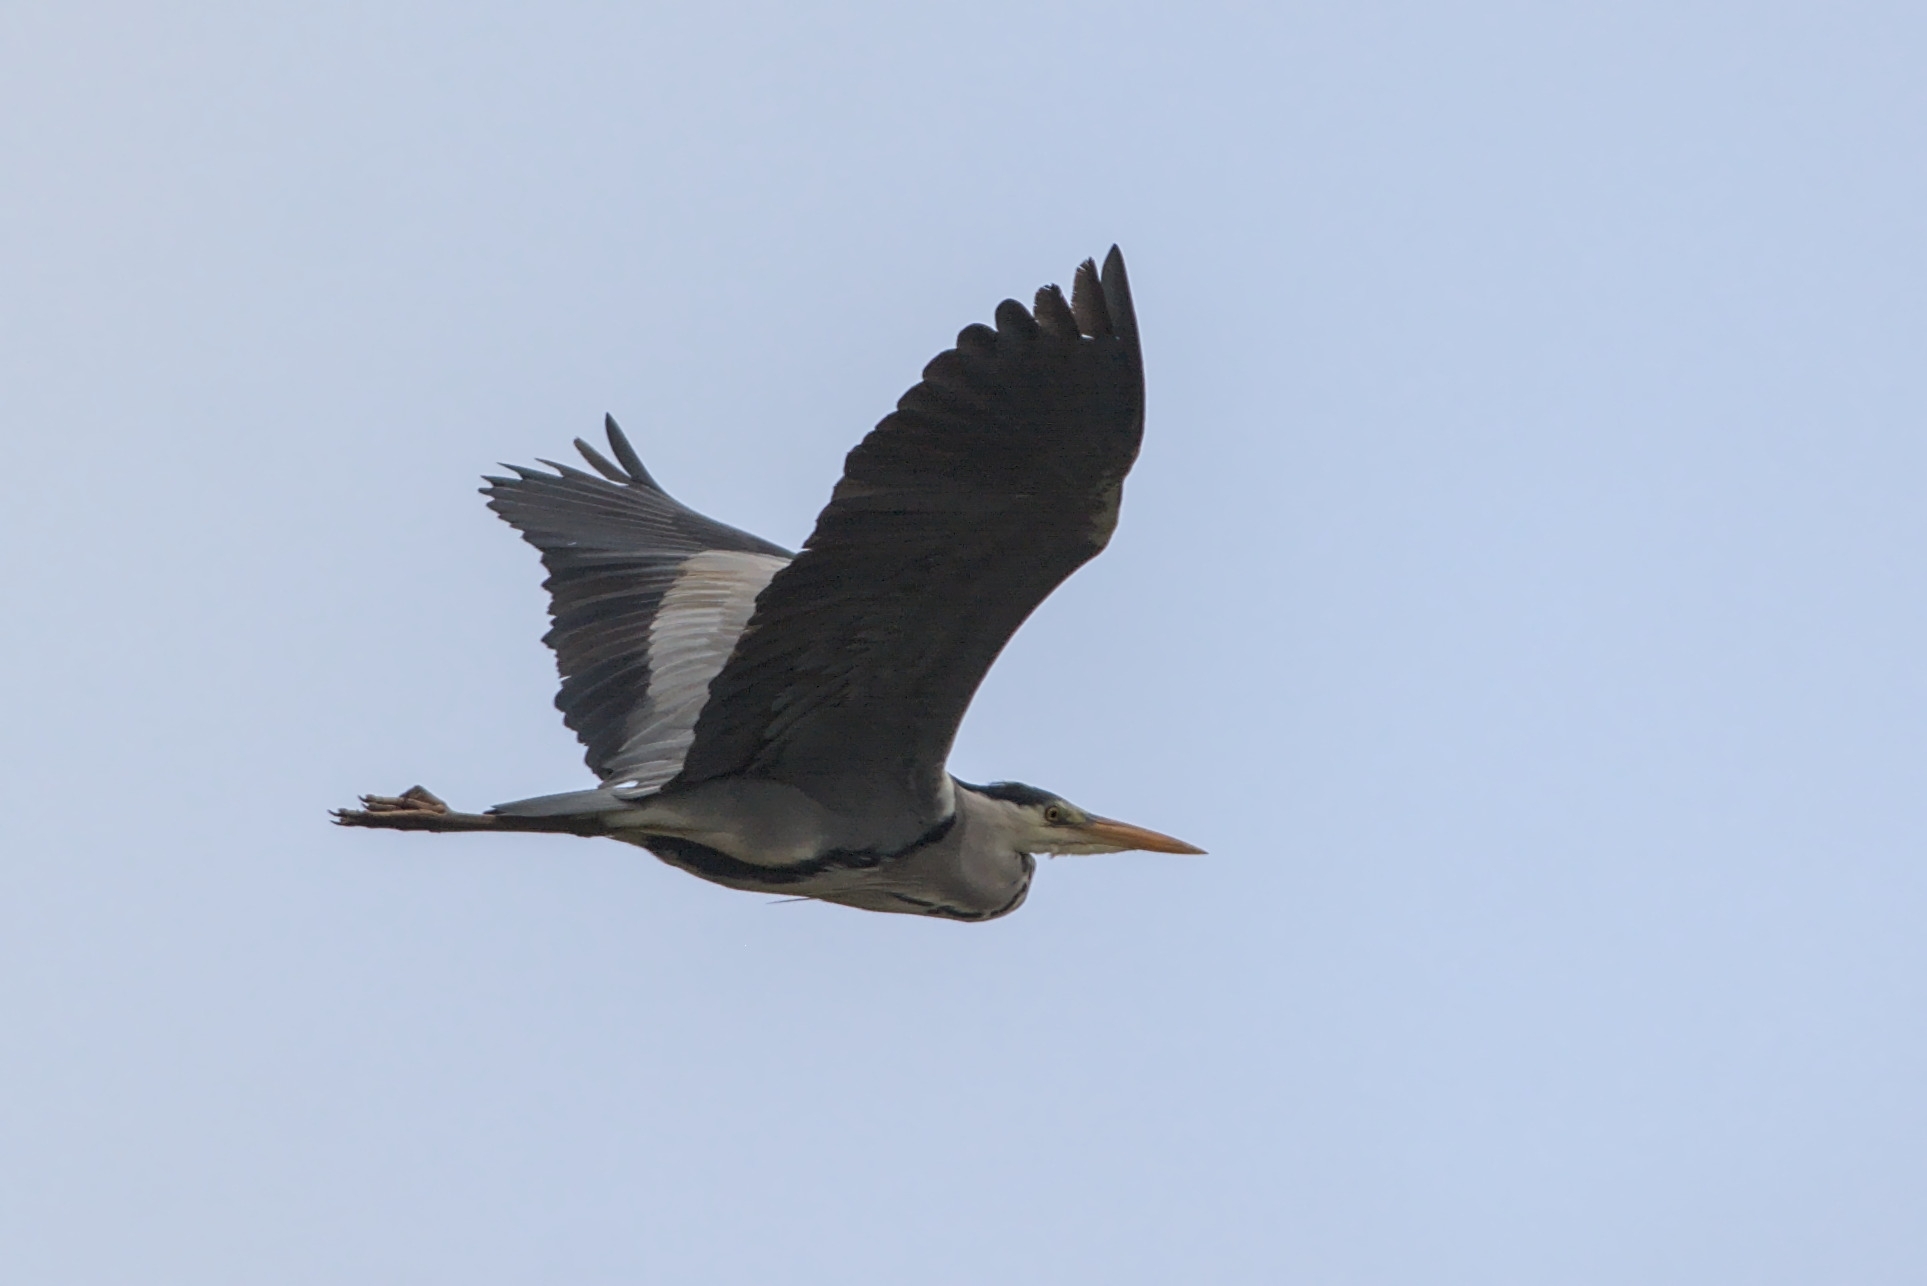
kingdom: Animalia
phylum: Chordata
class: Aves
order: Pelecaniformes
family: Ardeidae
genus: Ardea
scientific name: Ardea cinerea
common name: Grey heron
